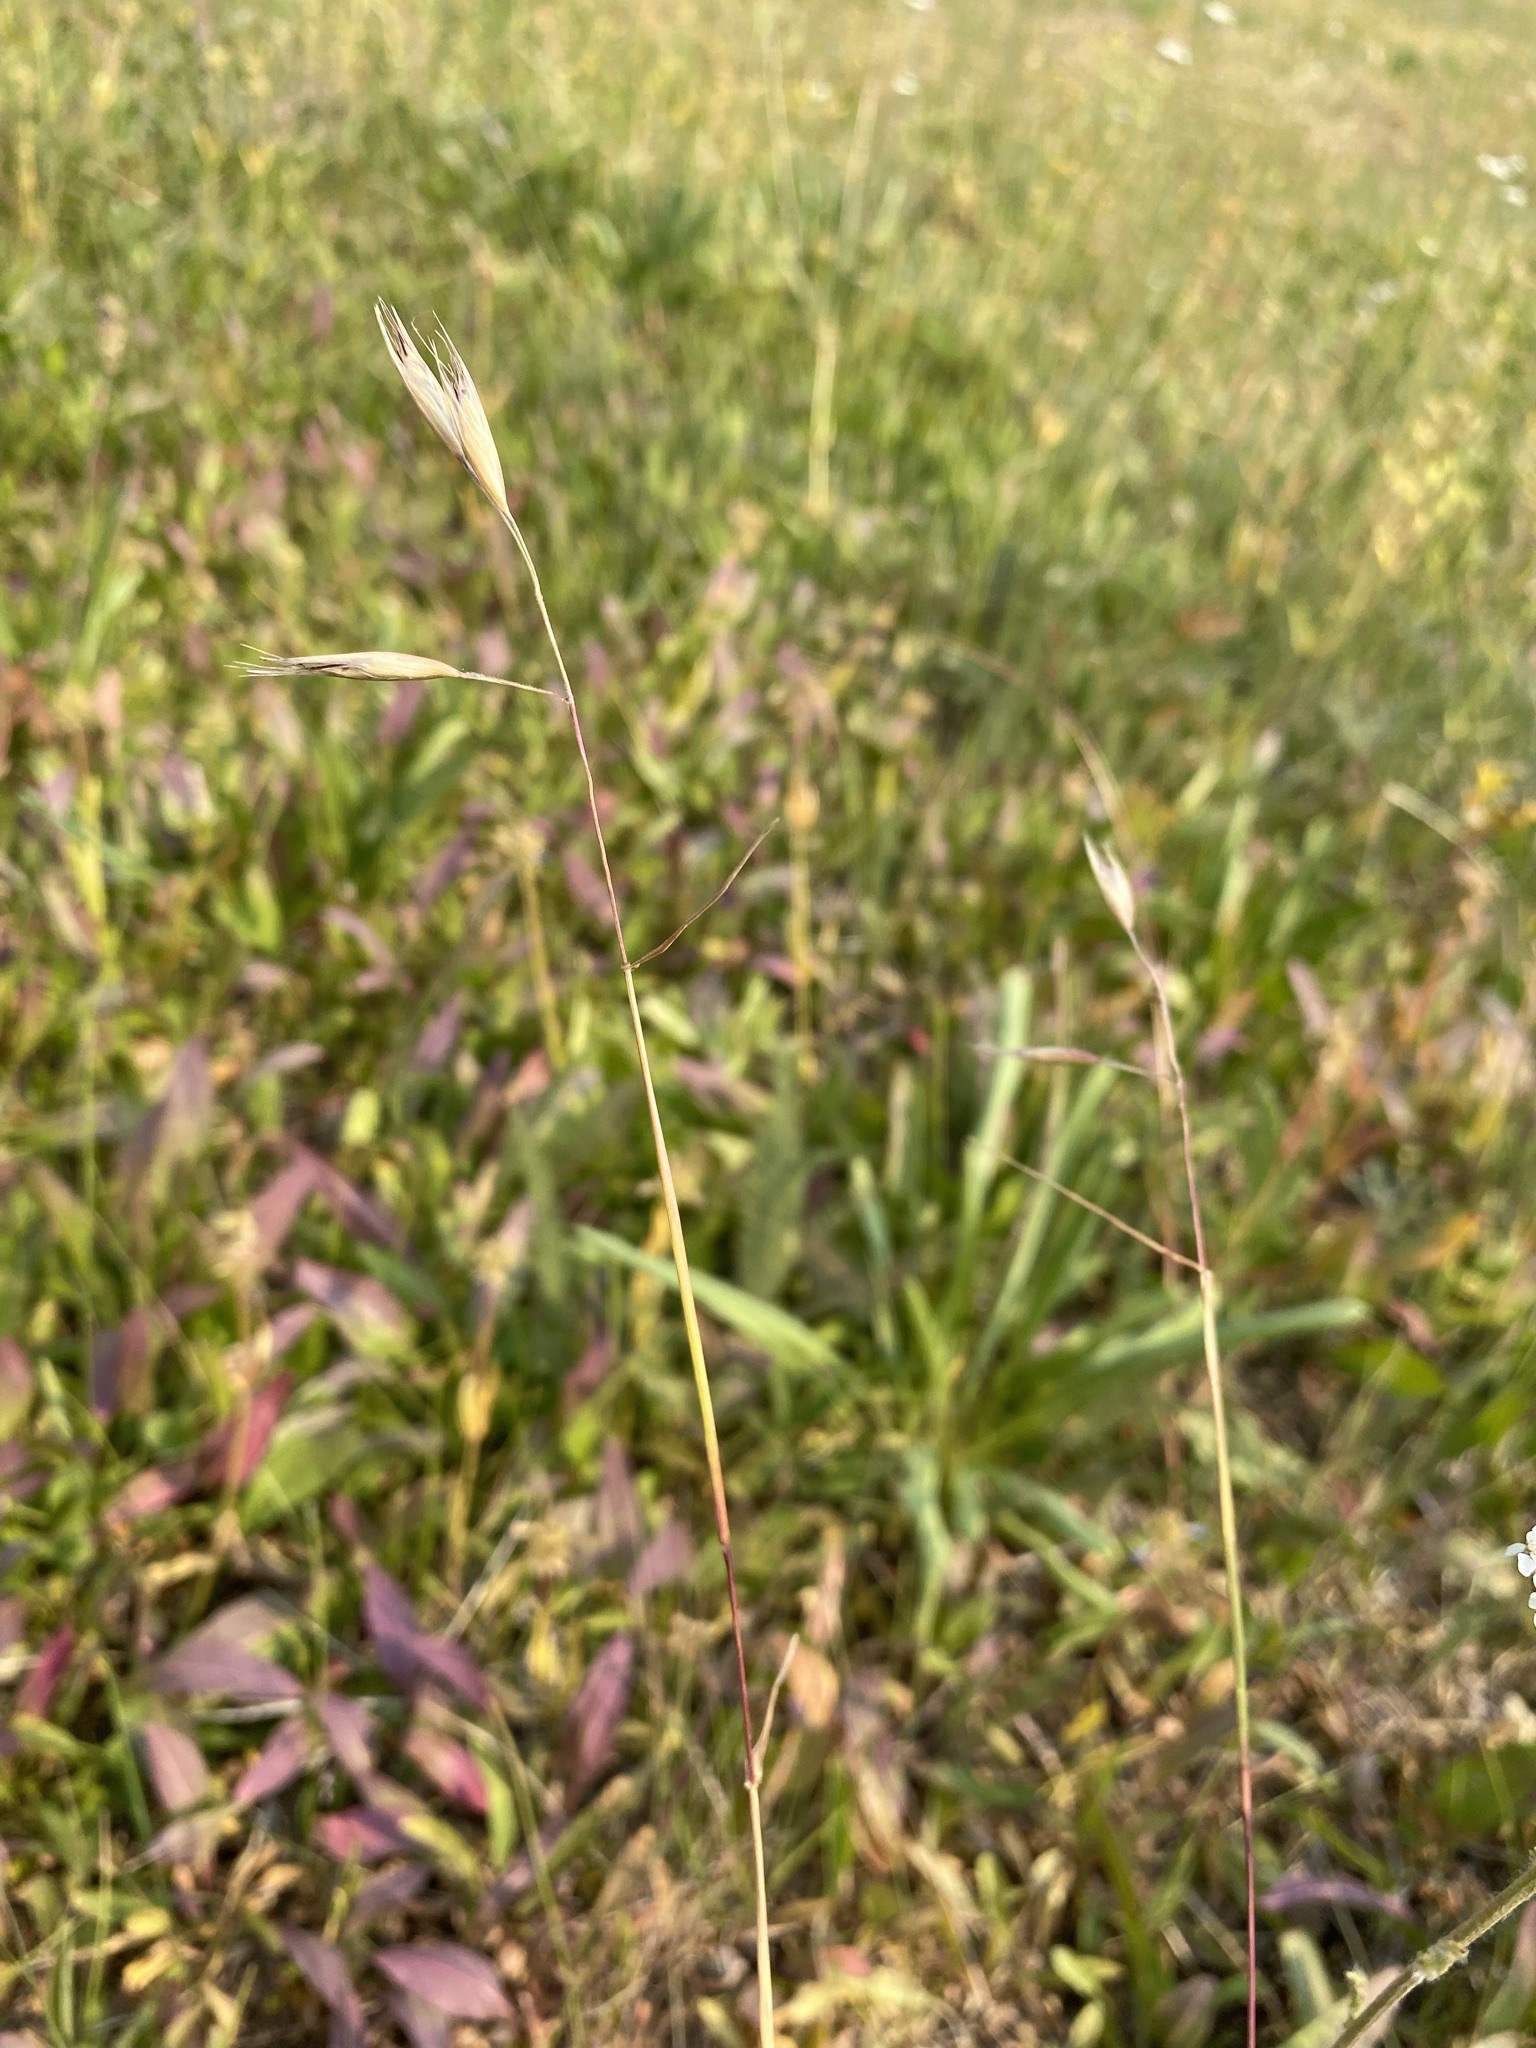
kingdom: Plantae
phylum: Tracheophyta
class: Liliopsida
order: Poales
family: Poaceae
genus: Danthonia
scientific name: Danthonia californica
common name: California oat grass
